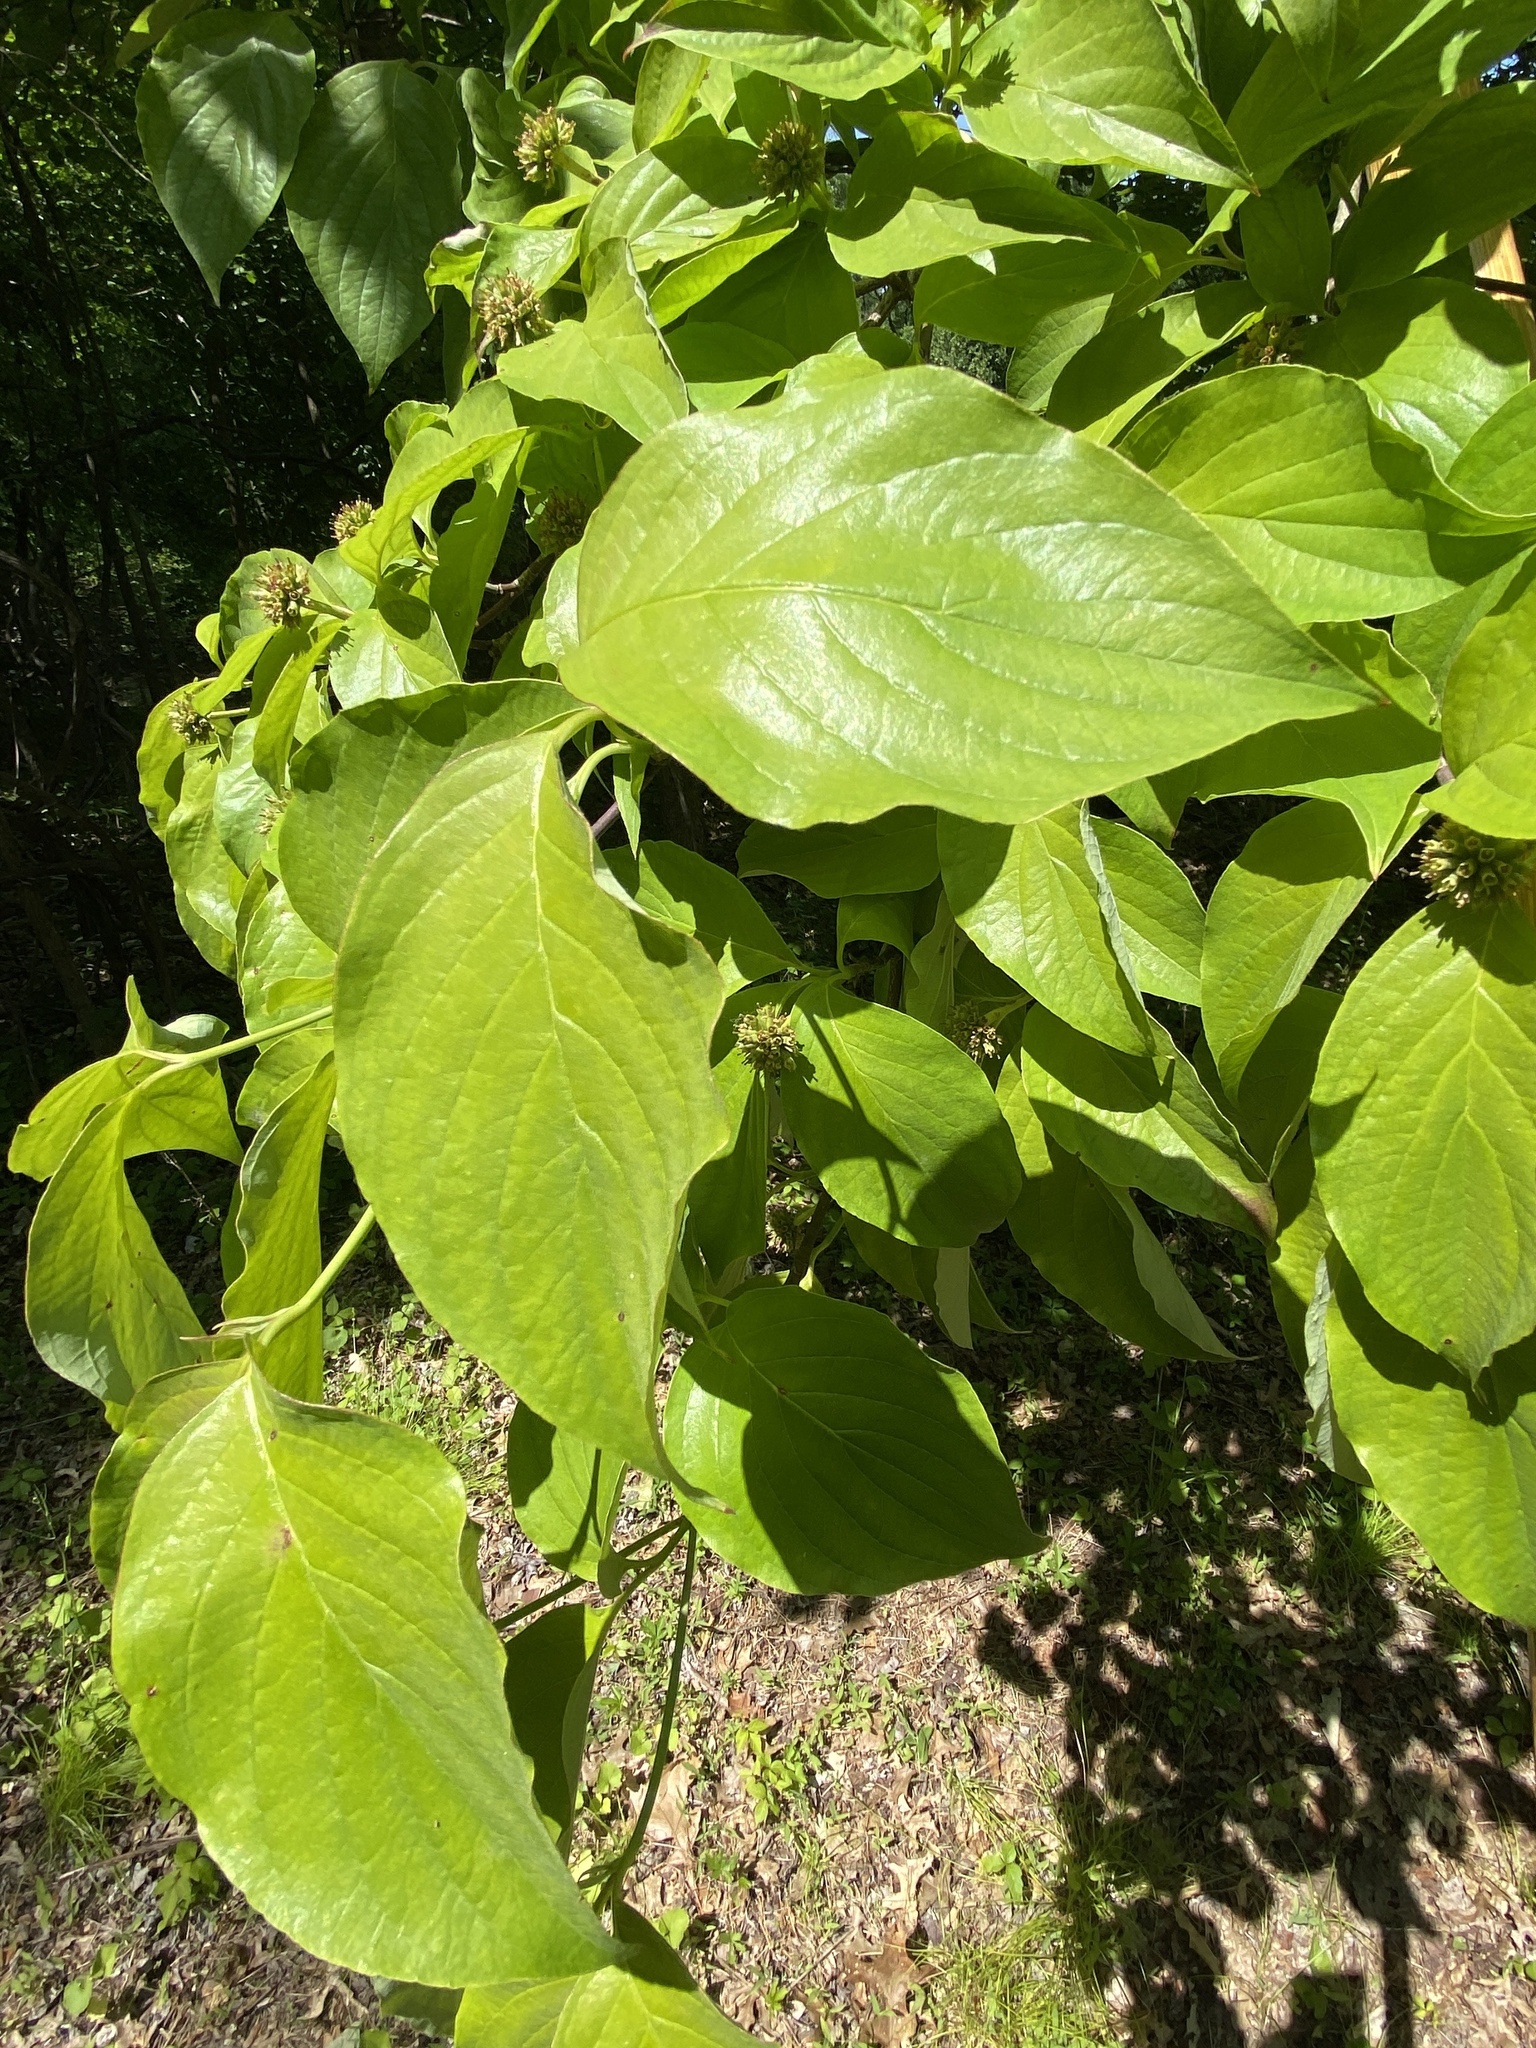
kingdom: Plantae
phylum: Tracheophyta
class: Magnoliopsida
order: Cornales
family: Cornaceae
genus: Cornus
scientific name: Cornus florida
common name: Flowering dogwood
